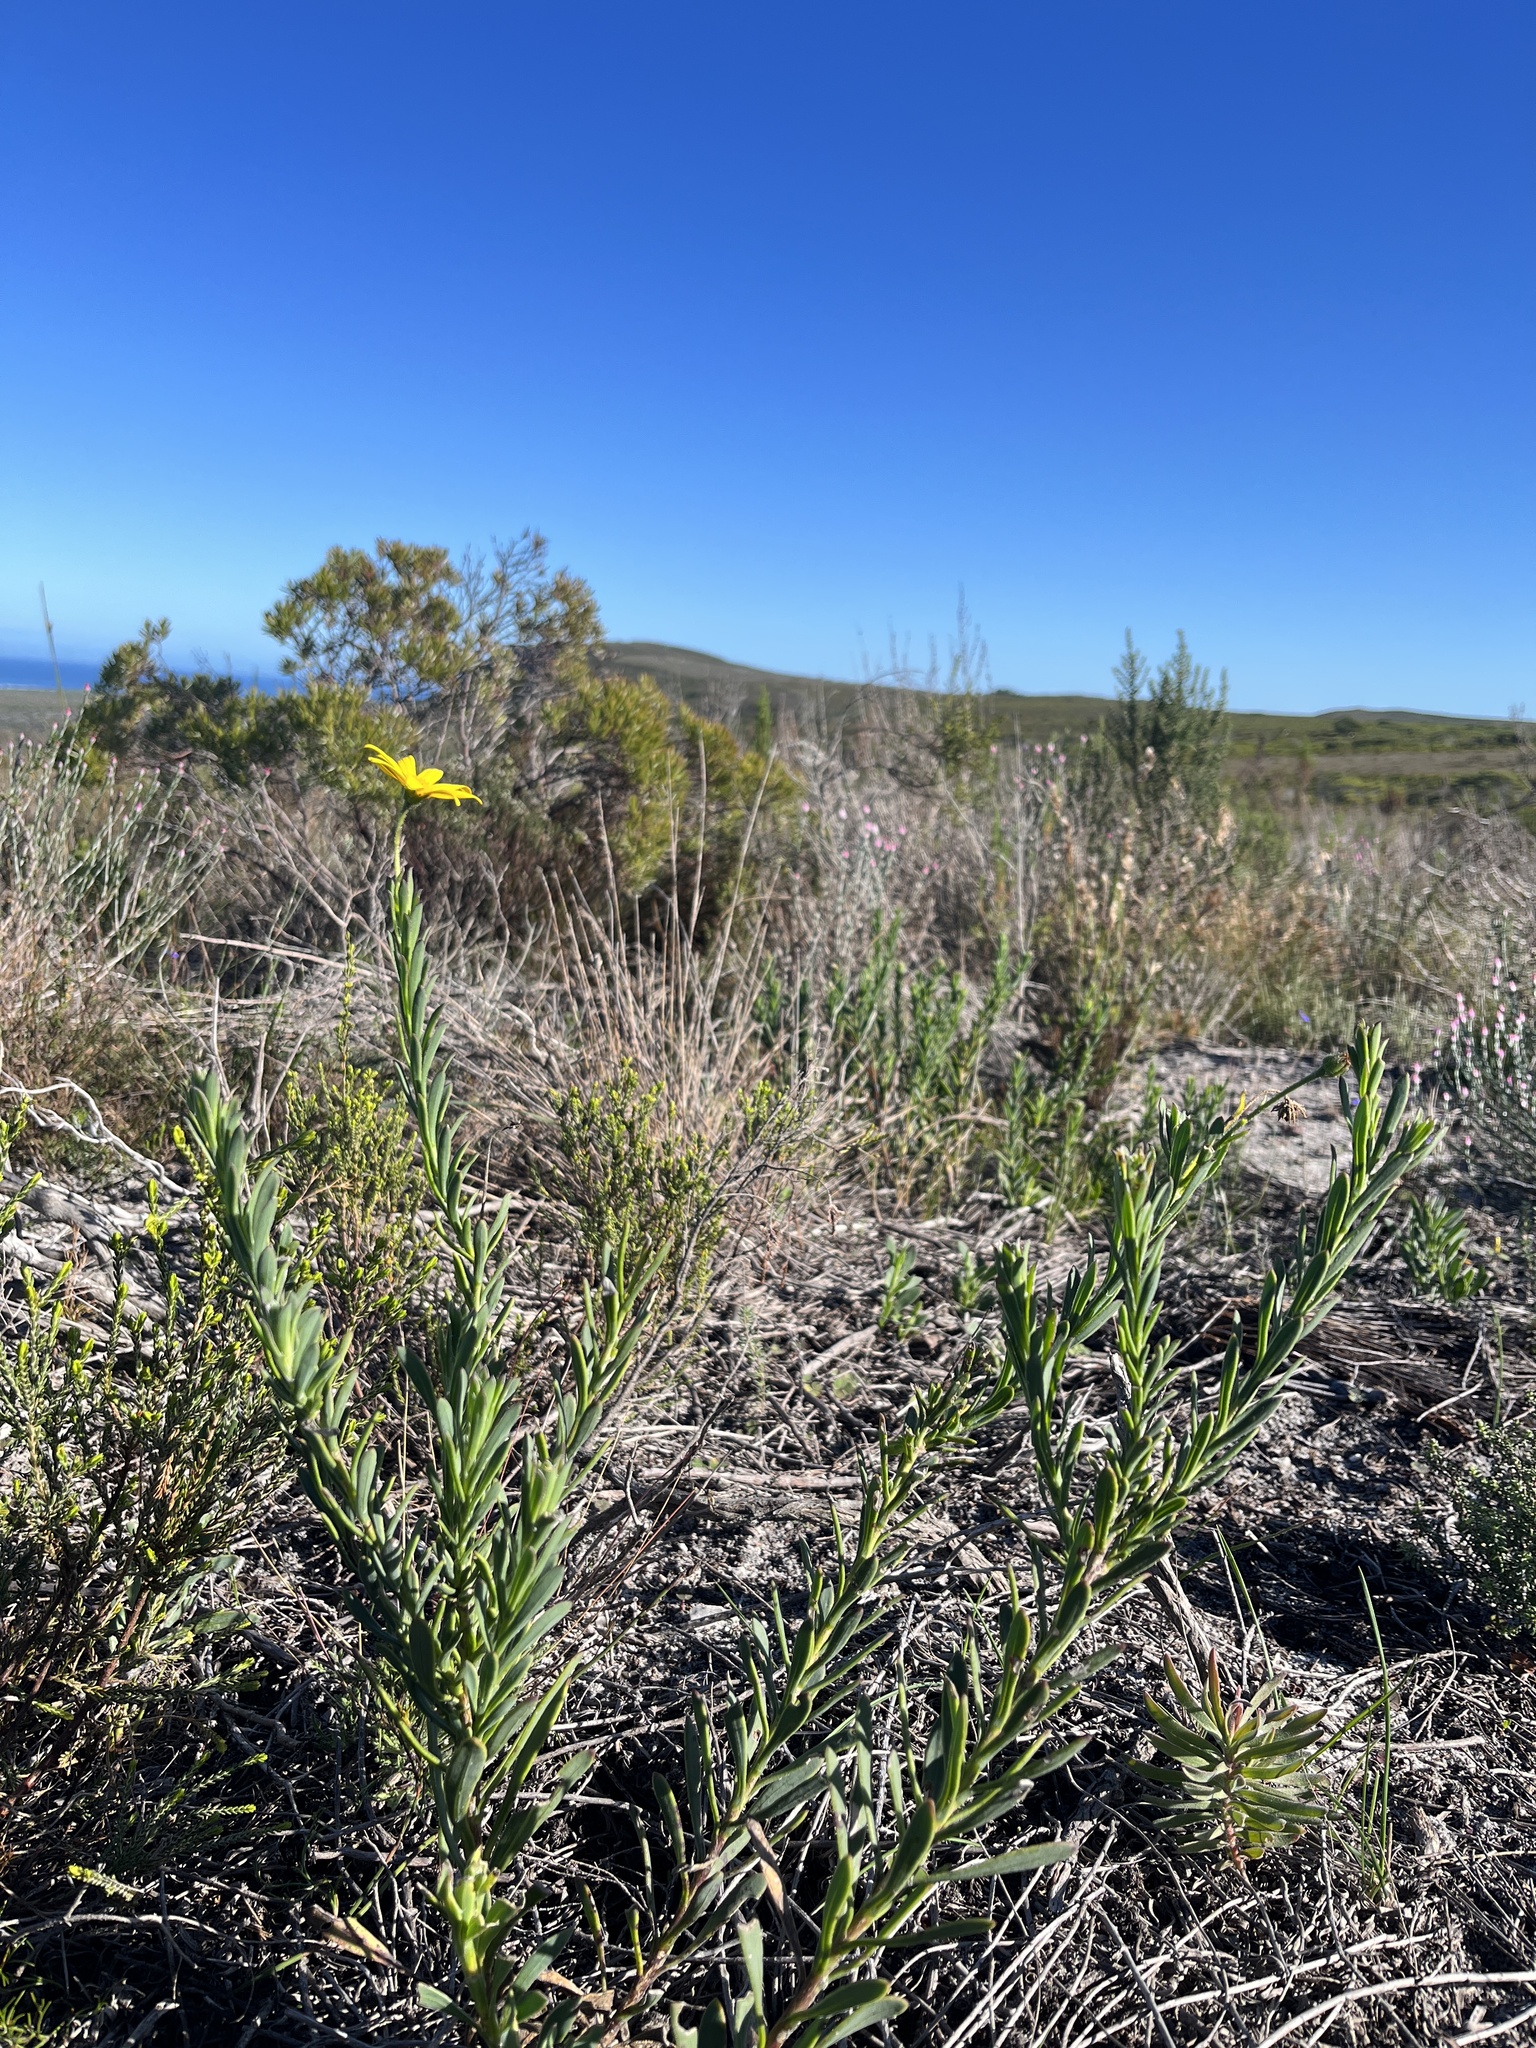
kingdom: Plantae
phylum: Tracheophyta
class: Magnoliopsida
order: Asterales
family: Asteraceae
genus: Osteospermum
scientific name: Osteospermum polygaloides
